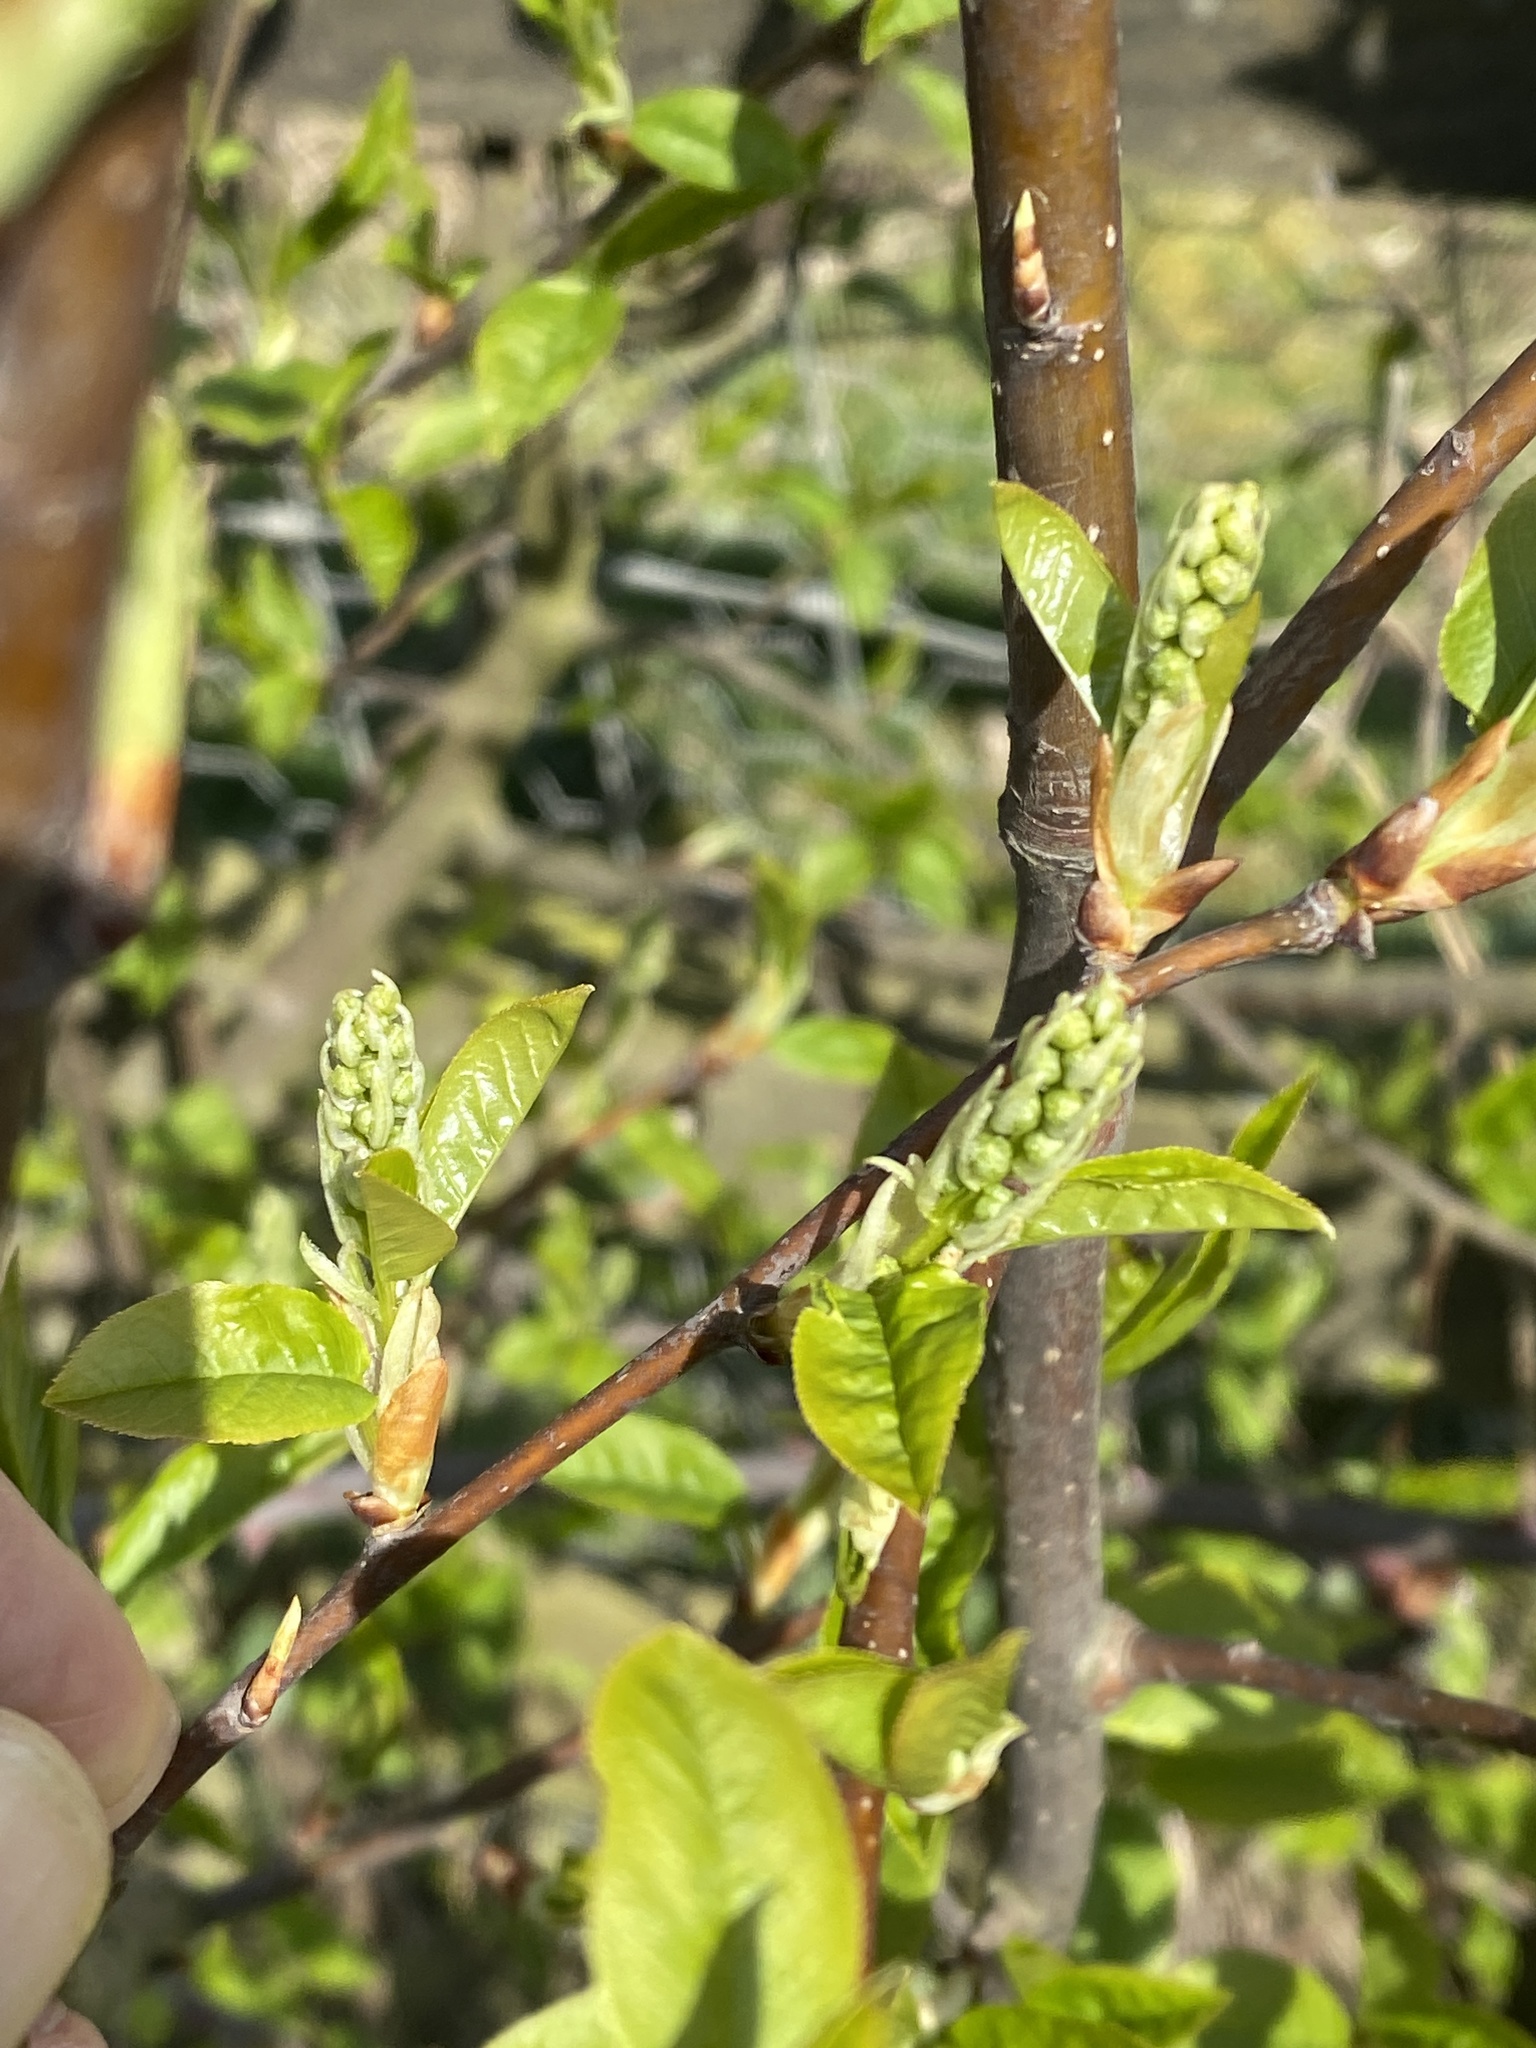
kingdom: Plantae
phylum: Tracheophyta
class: Magnoliopsida
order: Rosales
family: Rosaceae
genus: Prunus
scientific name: Prunus padus
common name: Bird cherry
